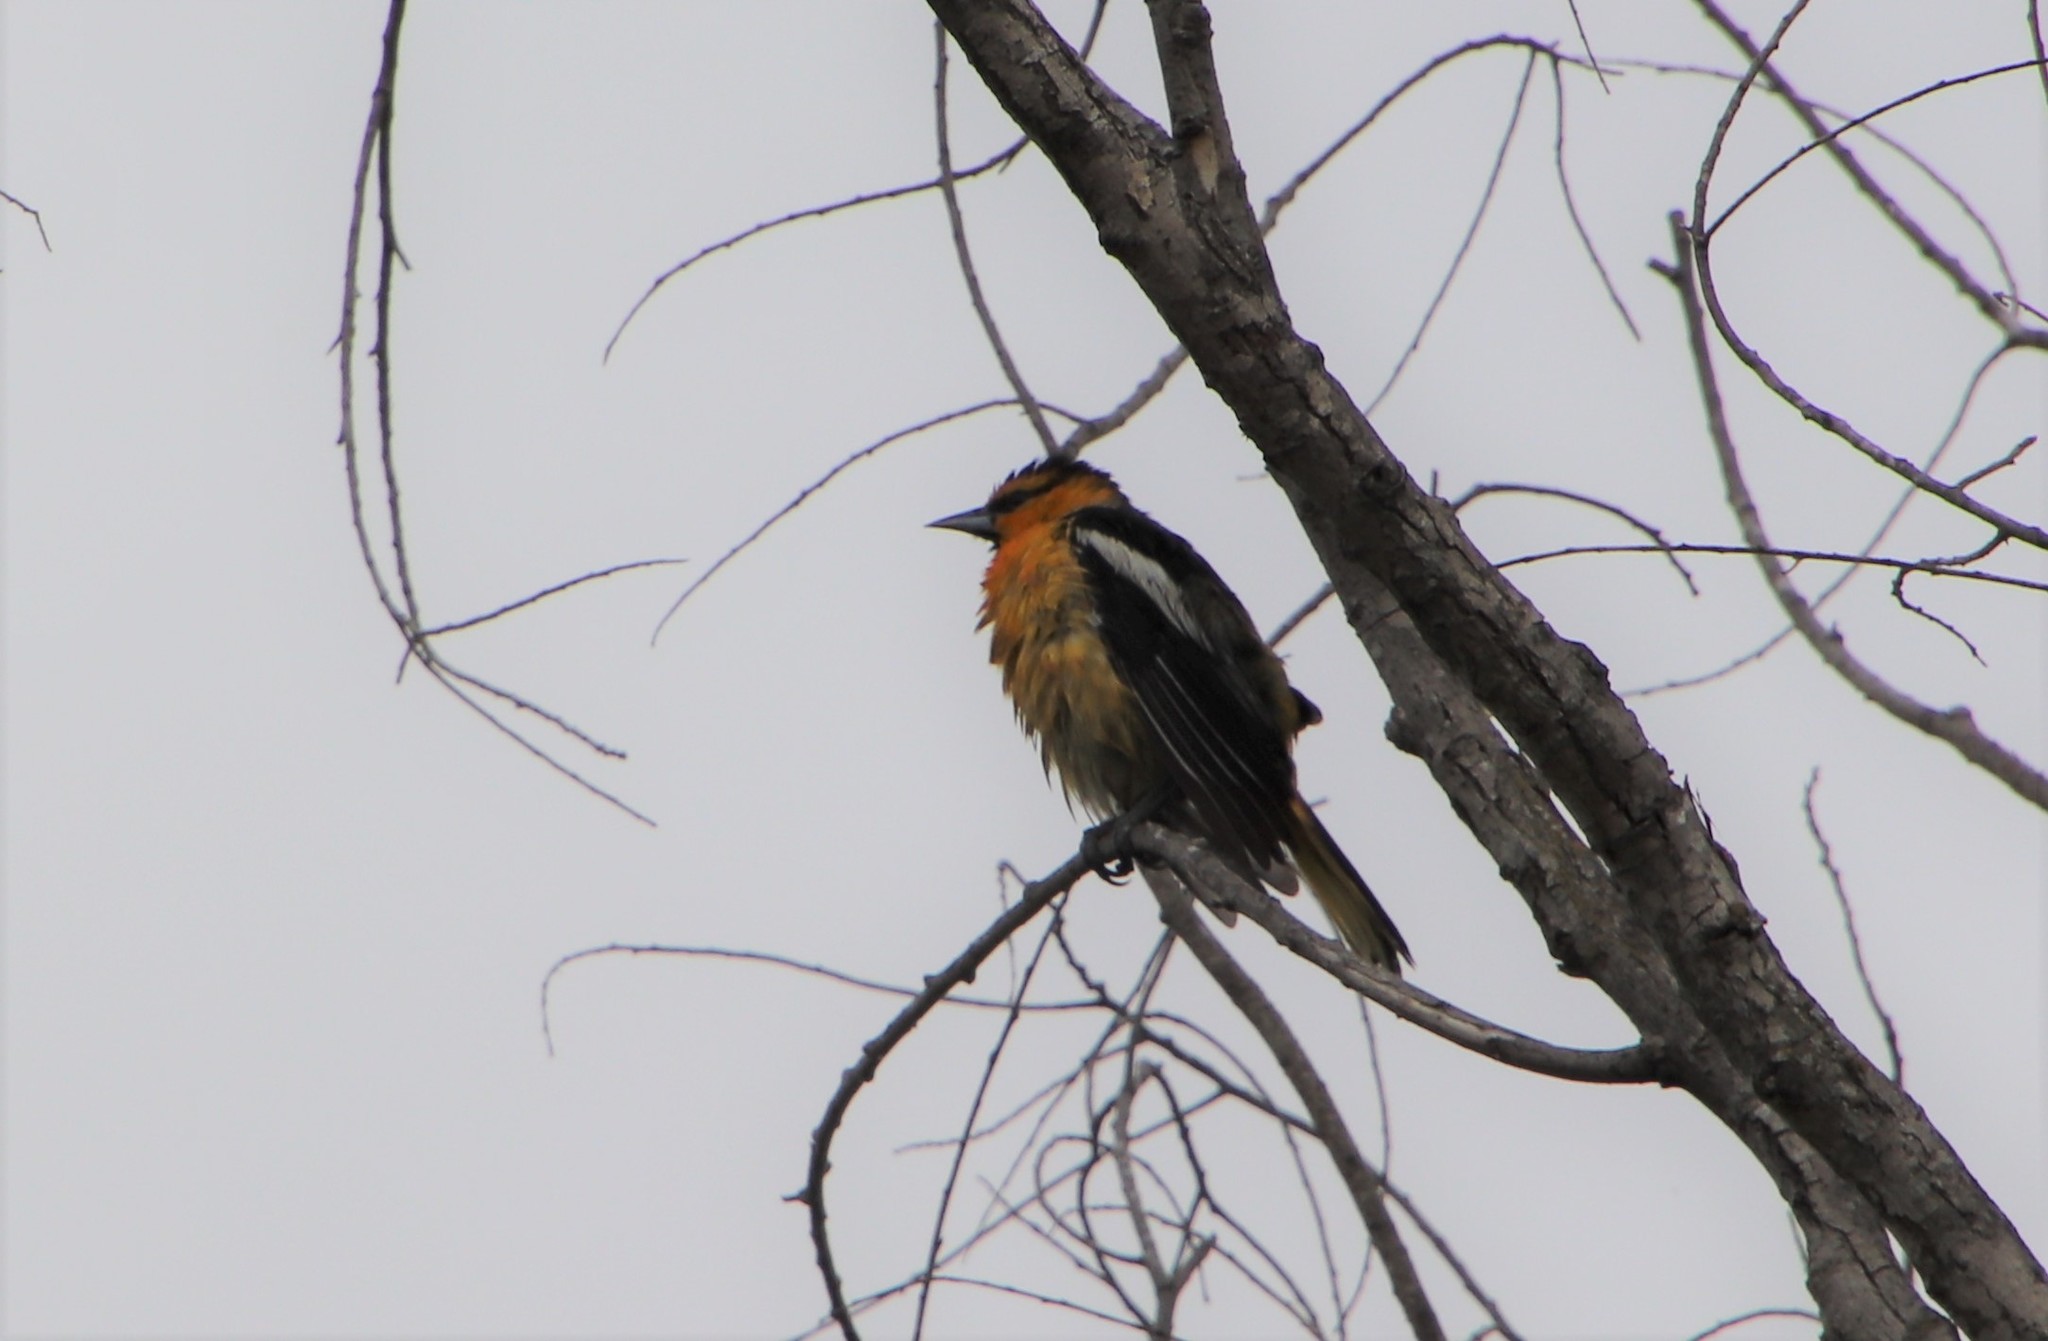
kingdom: Animalia
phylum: Chordata
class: Aves
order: Passeriformes
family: Icteridae
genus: Icterus
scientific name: Icterus bullockii
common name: Bullock's oriole
